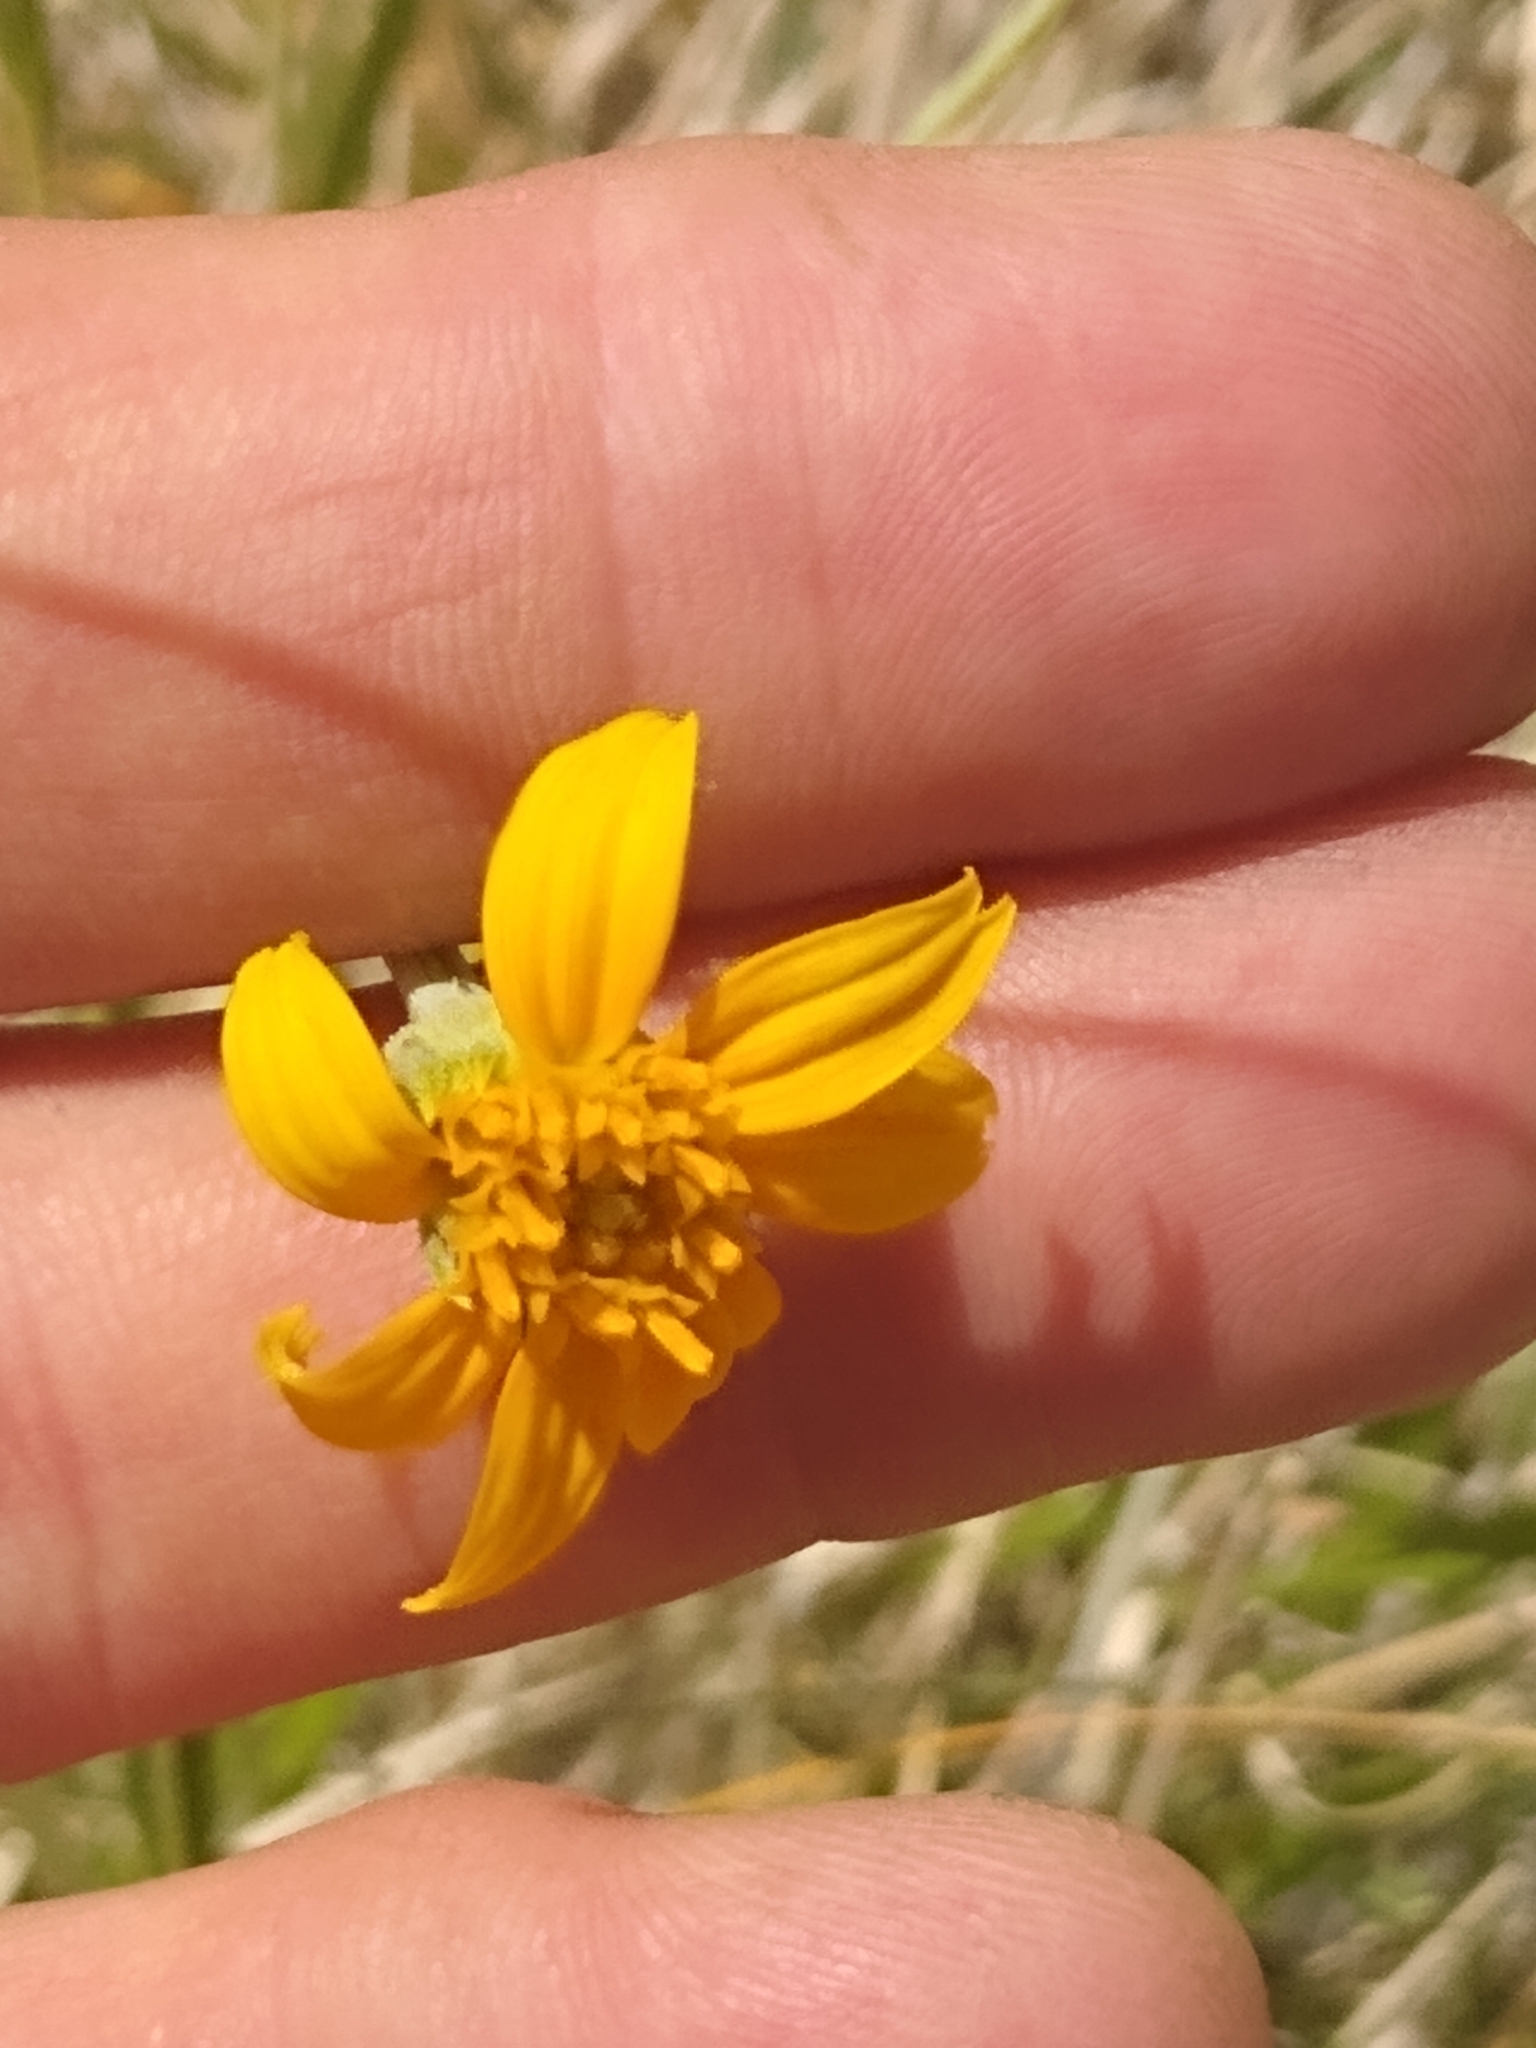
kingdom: Plantae
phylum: Tracheophyta
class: Magnoliopsida
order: Asterales
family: Asteraceae
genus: Helianthus
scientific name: Helianthus devernii
